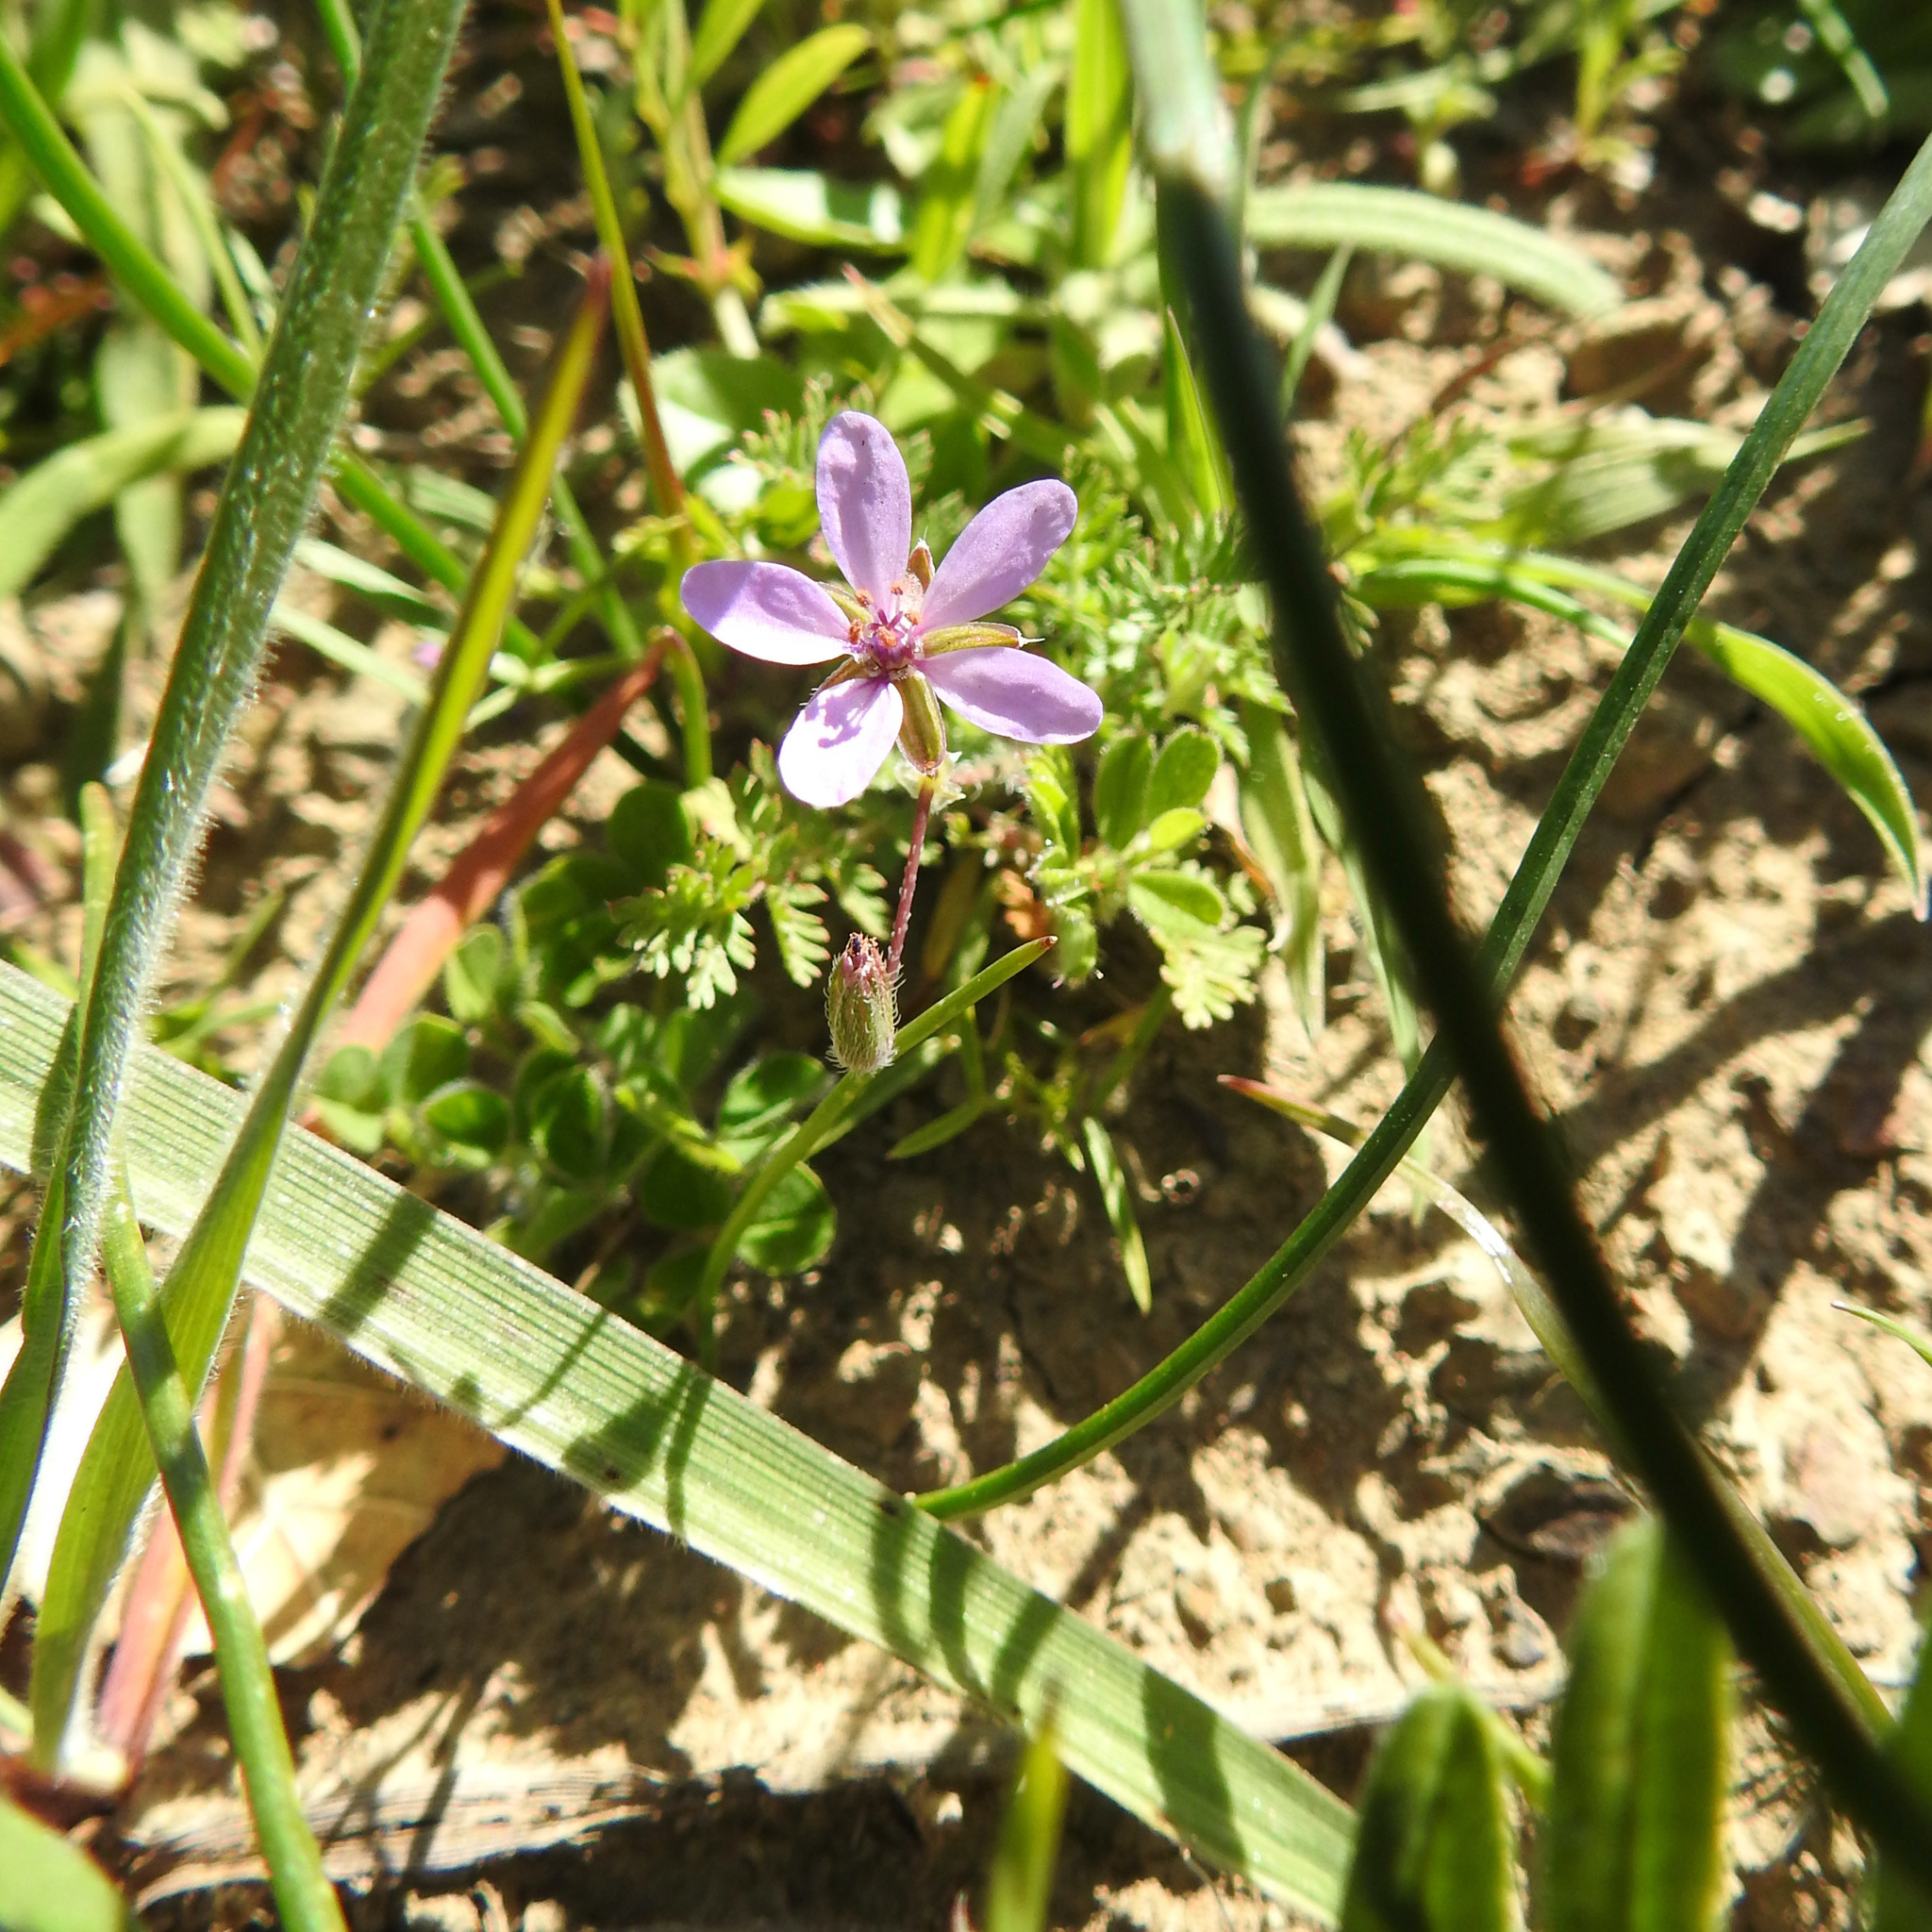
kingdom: Plantae
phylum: Tracheophyta
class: Magnoliopsida
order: Geraniales
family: Geraniaceae
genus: Erodium
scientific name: Erodium cicutarium
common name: Common stork's-bill
